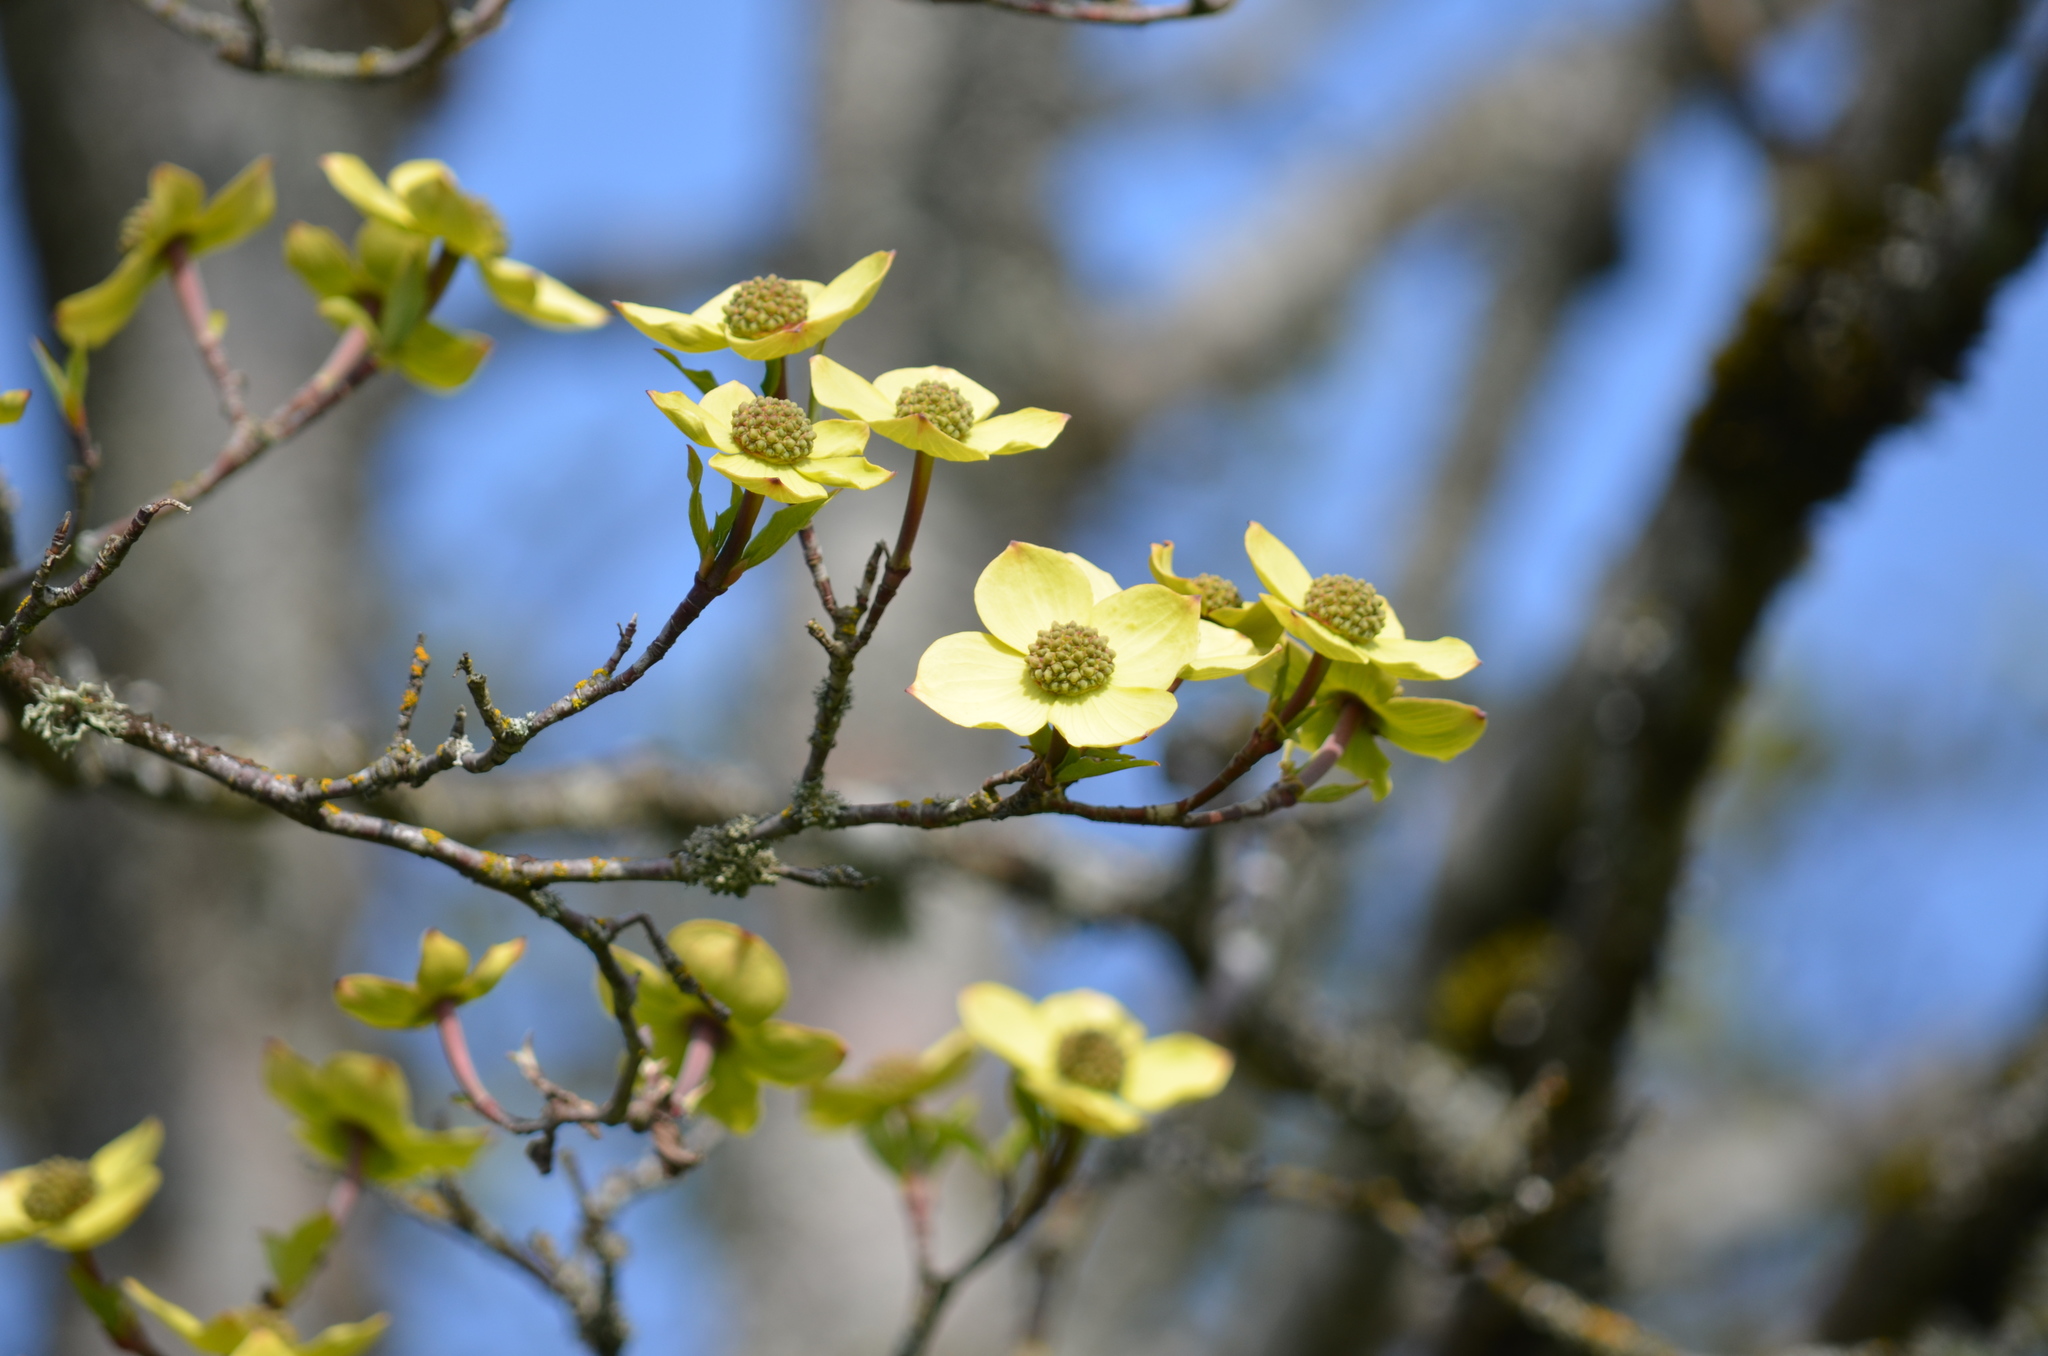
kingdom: Plantae
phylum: Tracheophyta
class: Magnoliopsida
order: Cornales
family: Cornaceae
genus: Cornus
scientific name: Cornus nuttallii
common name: Pacific dogwood
